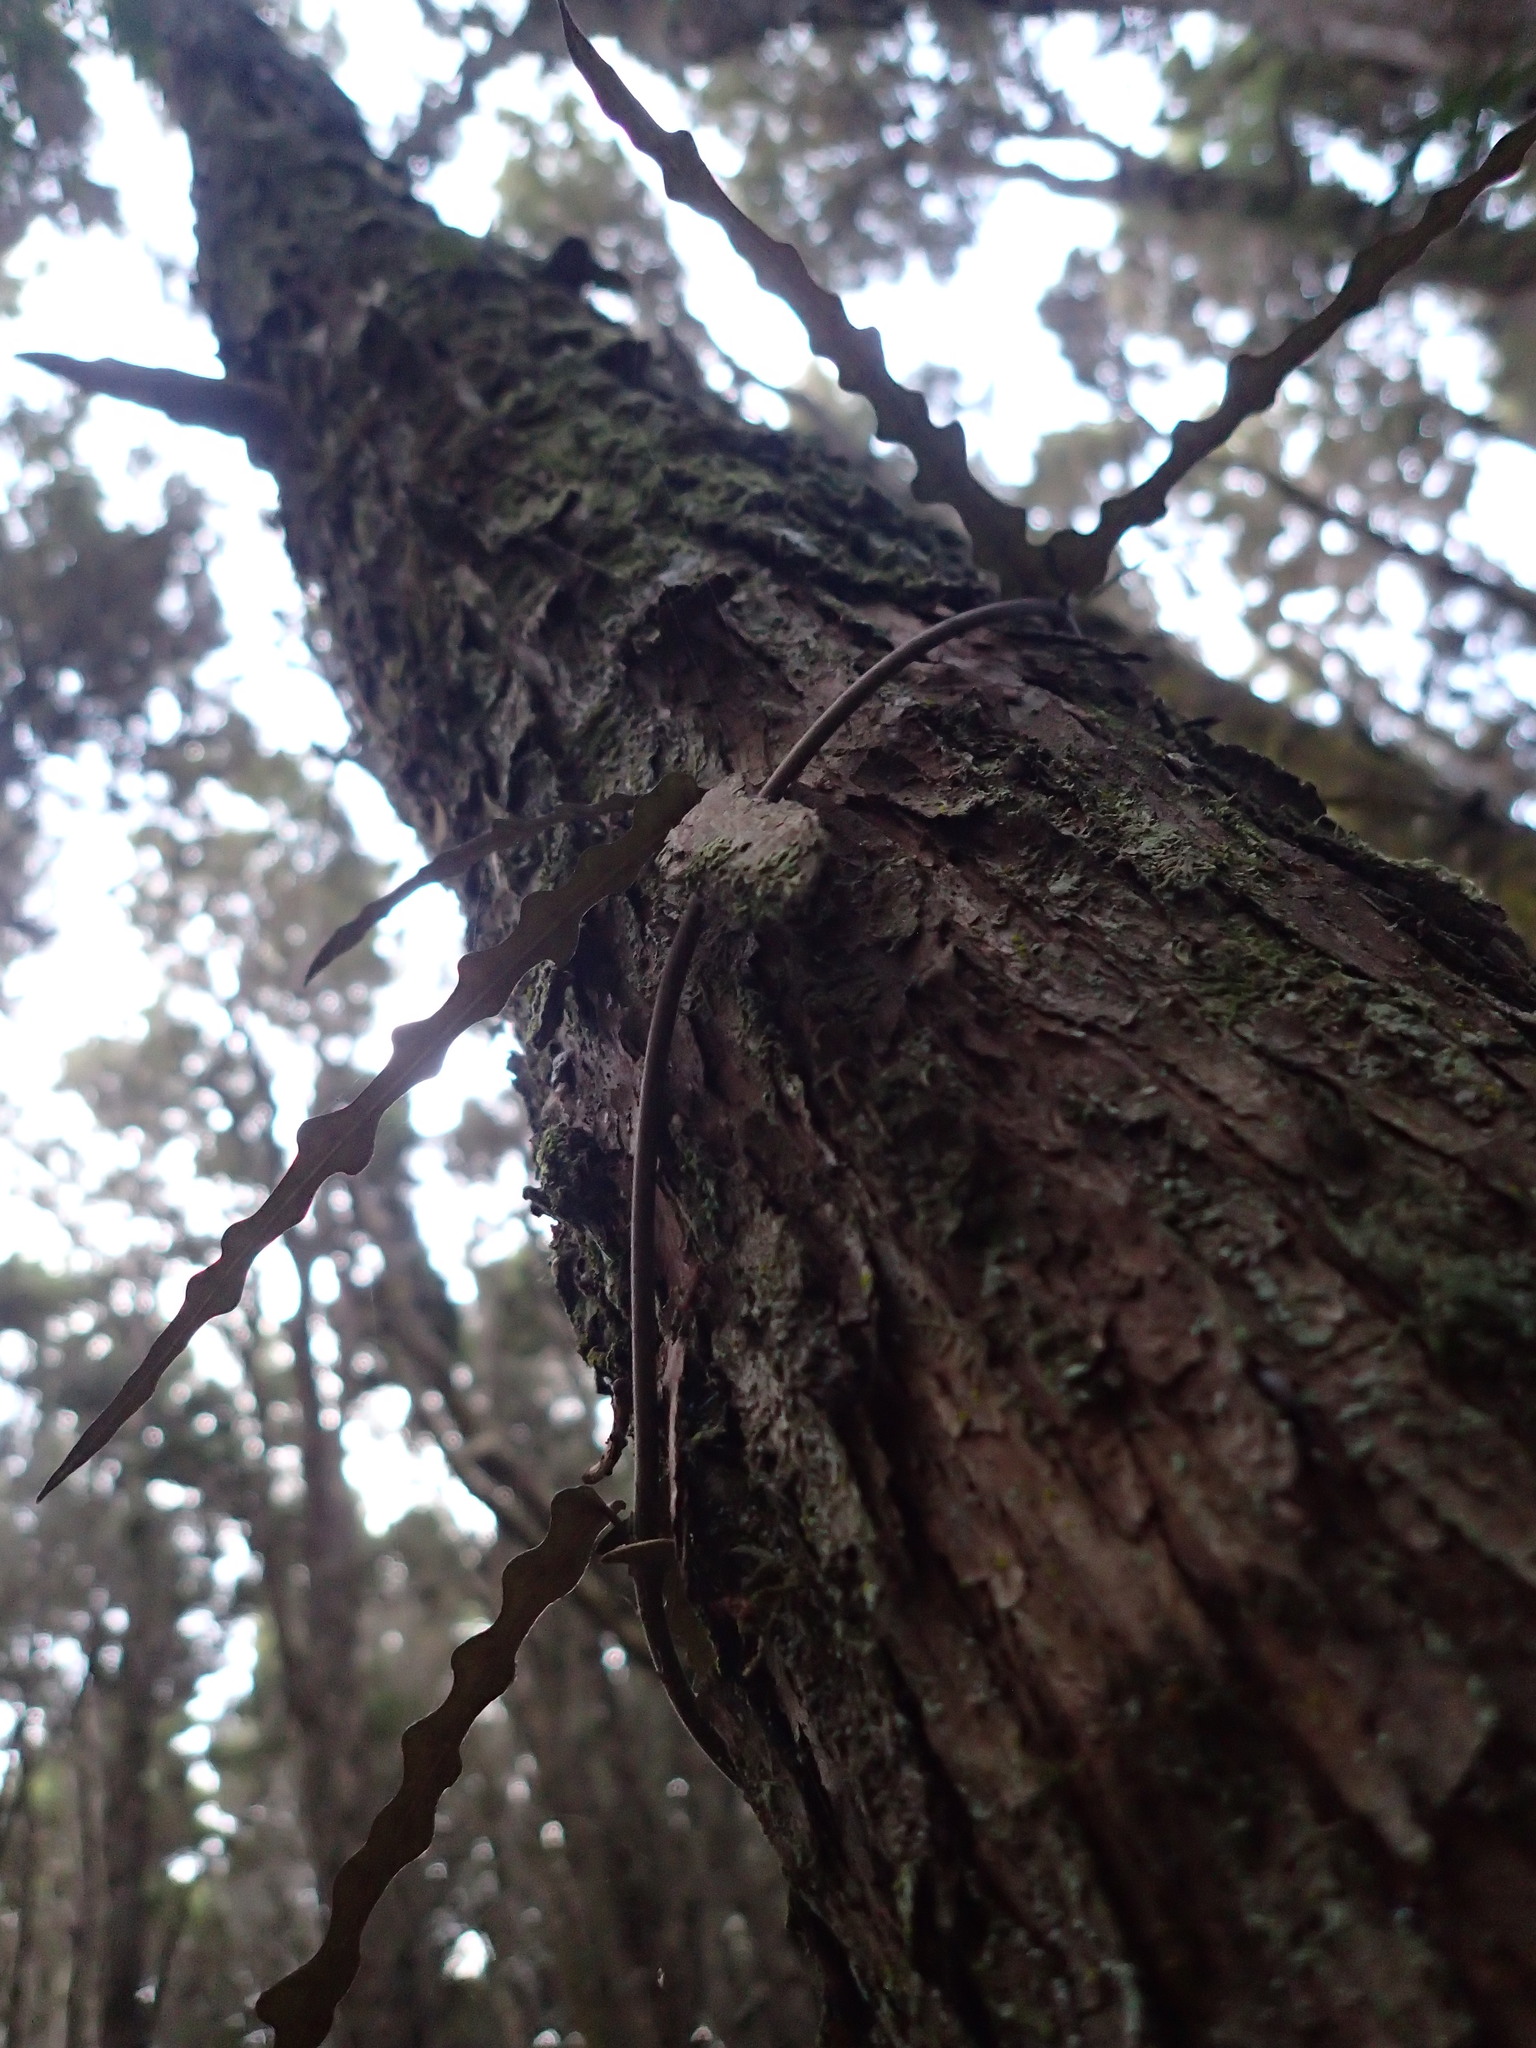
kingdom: Plantae
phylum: Tracheophyta
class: Magnoliopsida
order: Gentianales
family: Apocynaceae
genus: Parsonsia
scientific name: Parsonsia heterophylla
